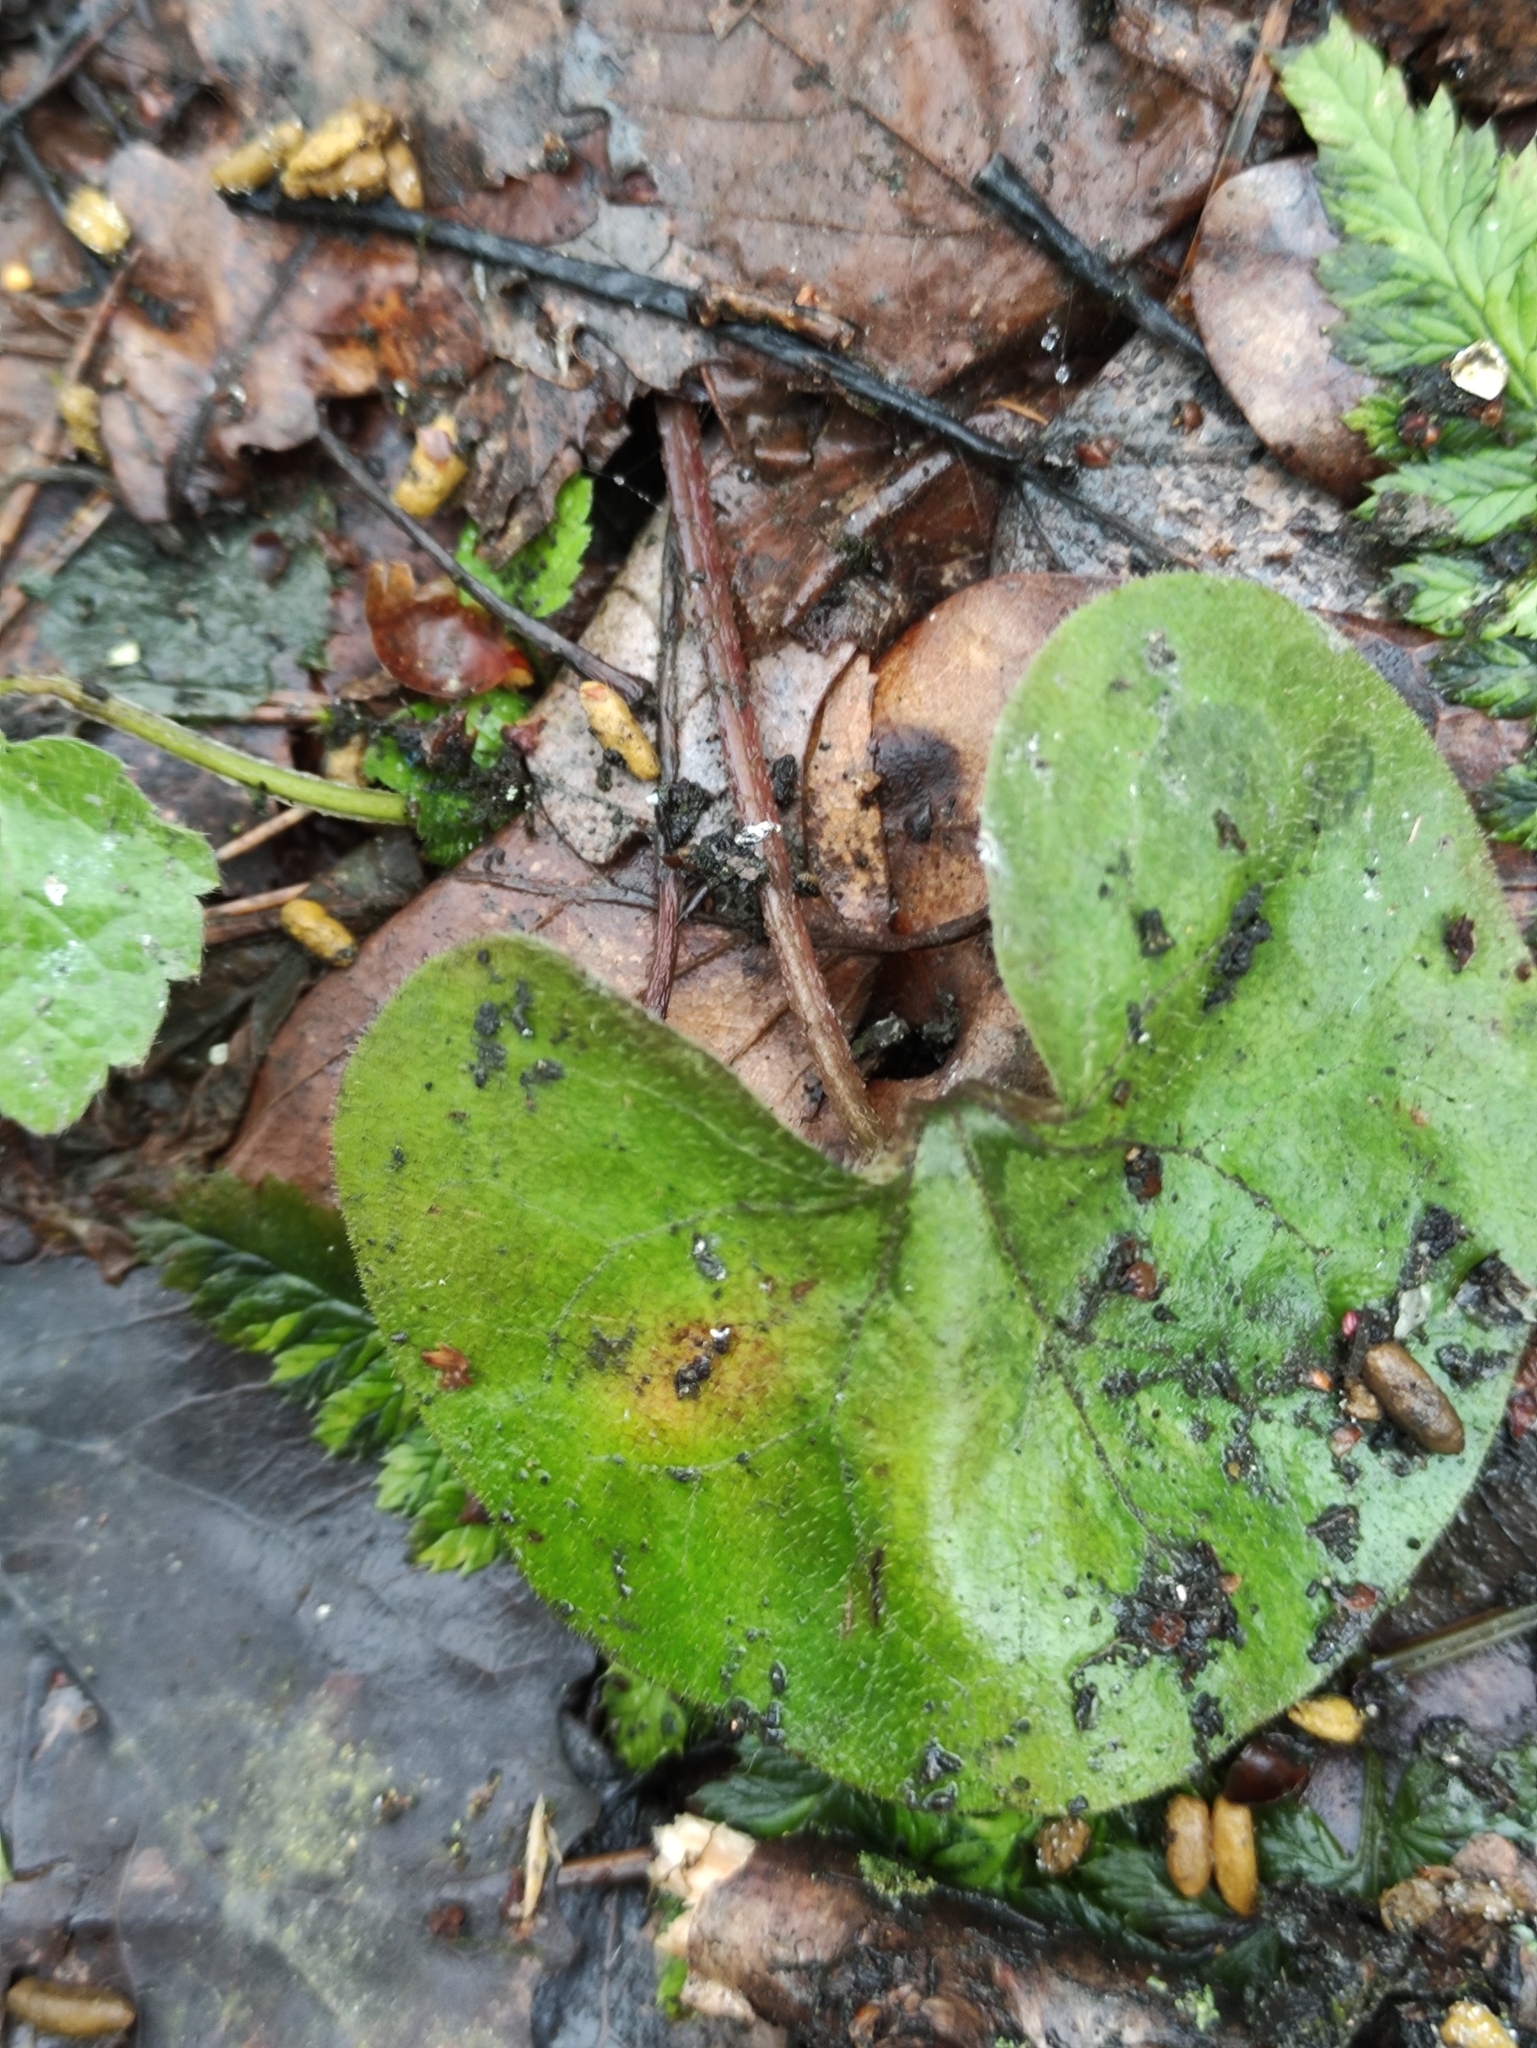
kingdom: Plantae
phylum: Tracheophyta
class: Magnoliopsida
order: Piperales
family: Aristolochiaceae
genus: Asarum
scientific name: Asarum europaeum
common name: Asarabacca
